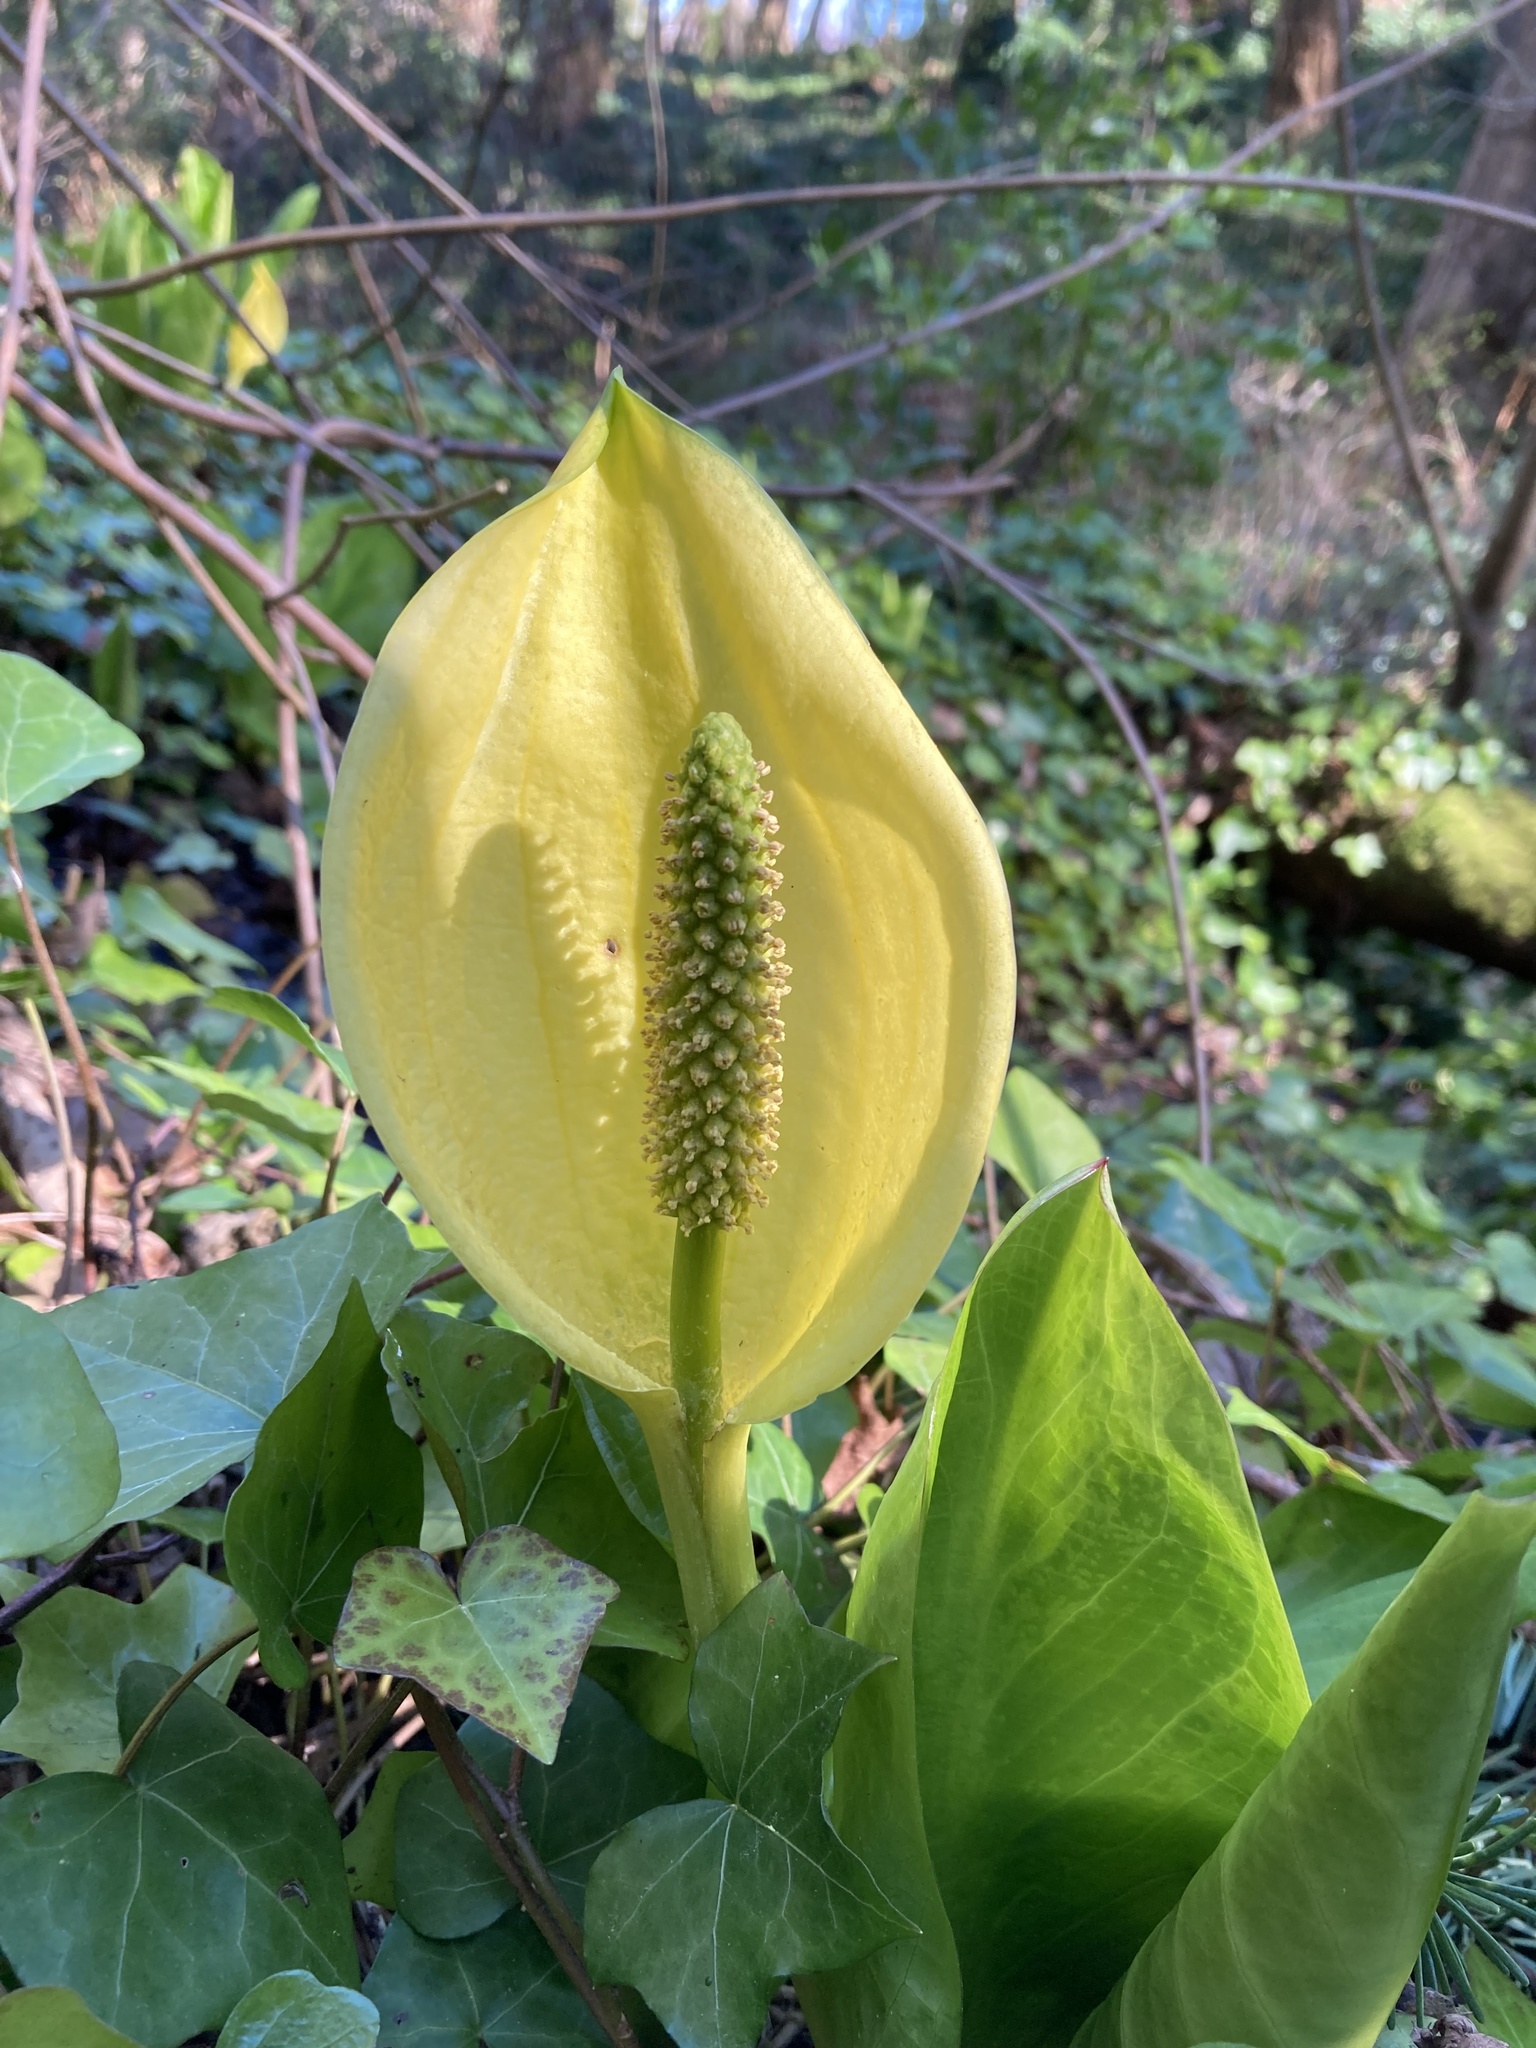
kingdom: Plantae
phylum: Tracheophyta
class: Liliopsida
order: Alismatales
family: Araceae
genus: Lysichiton
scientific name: Lysichiton americanus
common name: American skunk cabbage
